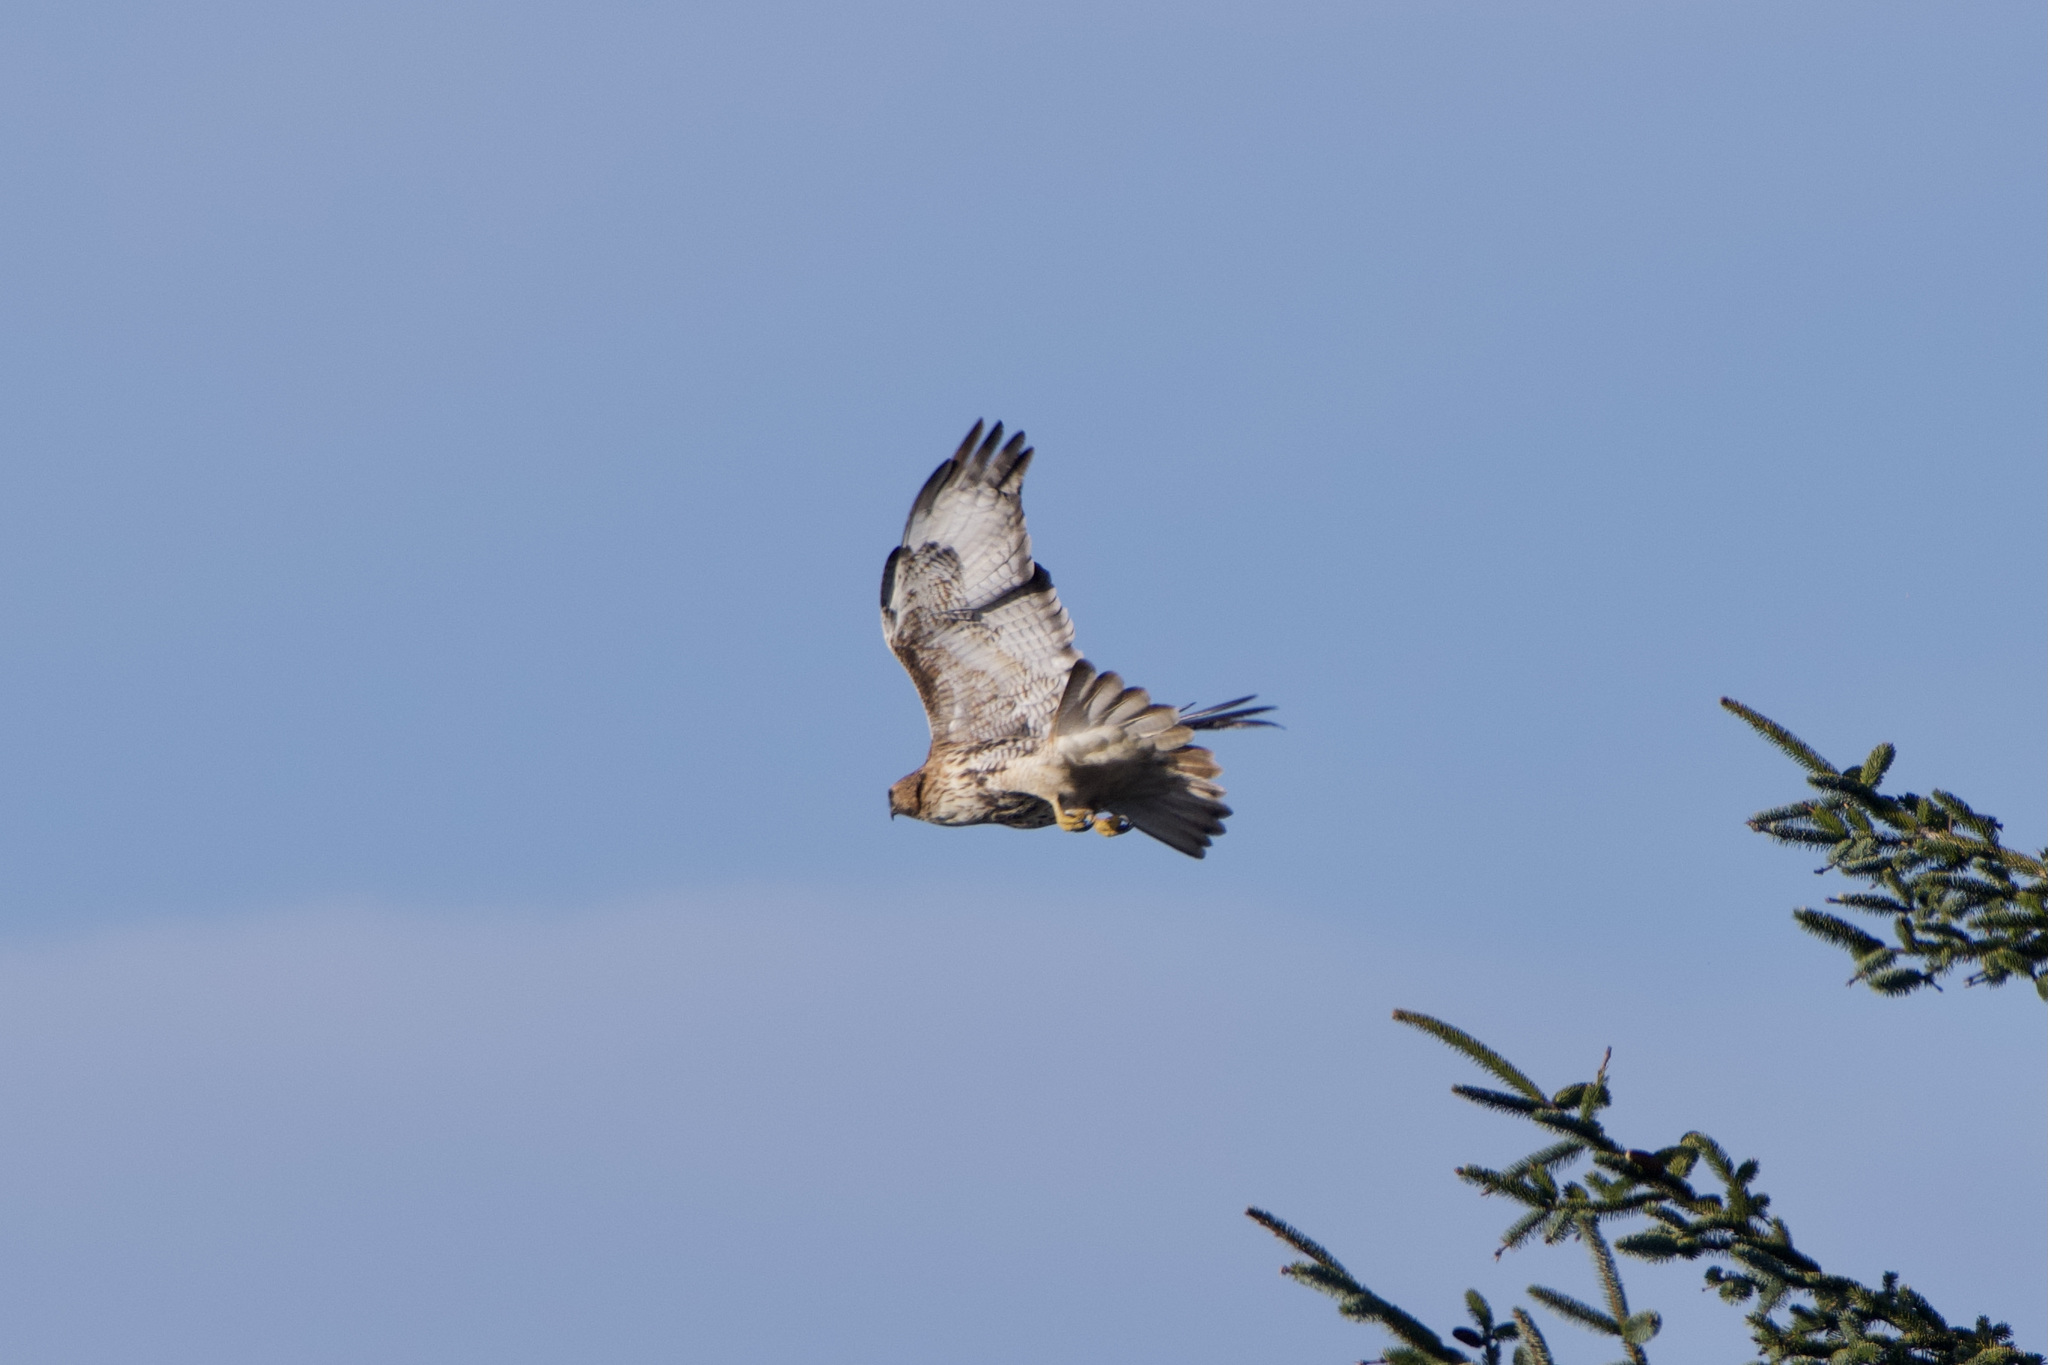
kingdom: Animalia
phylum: Chordata
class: Aves
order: Accipitriformes
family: Accipitridae
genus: Buteo
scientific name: Buteo jamaicensis
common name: Red-tailed hawk
